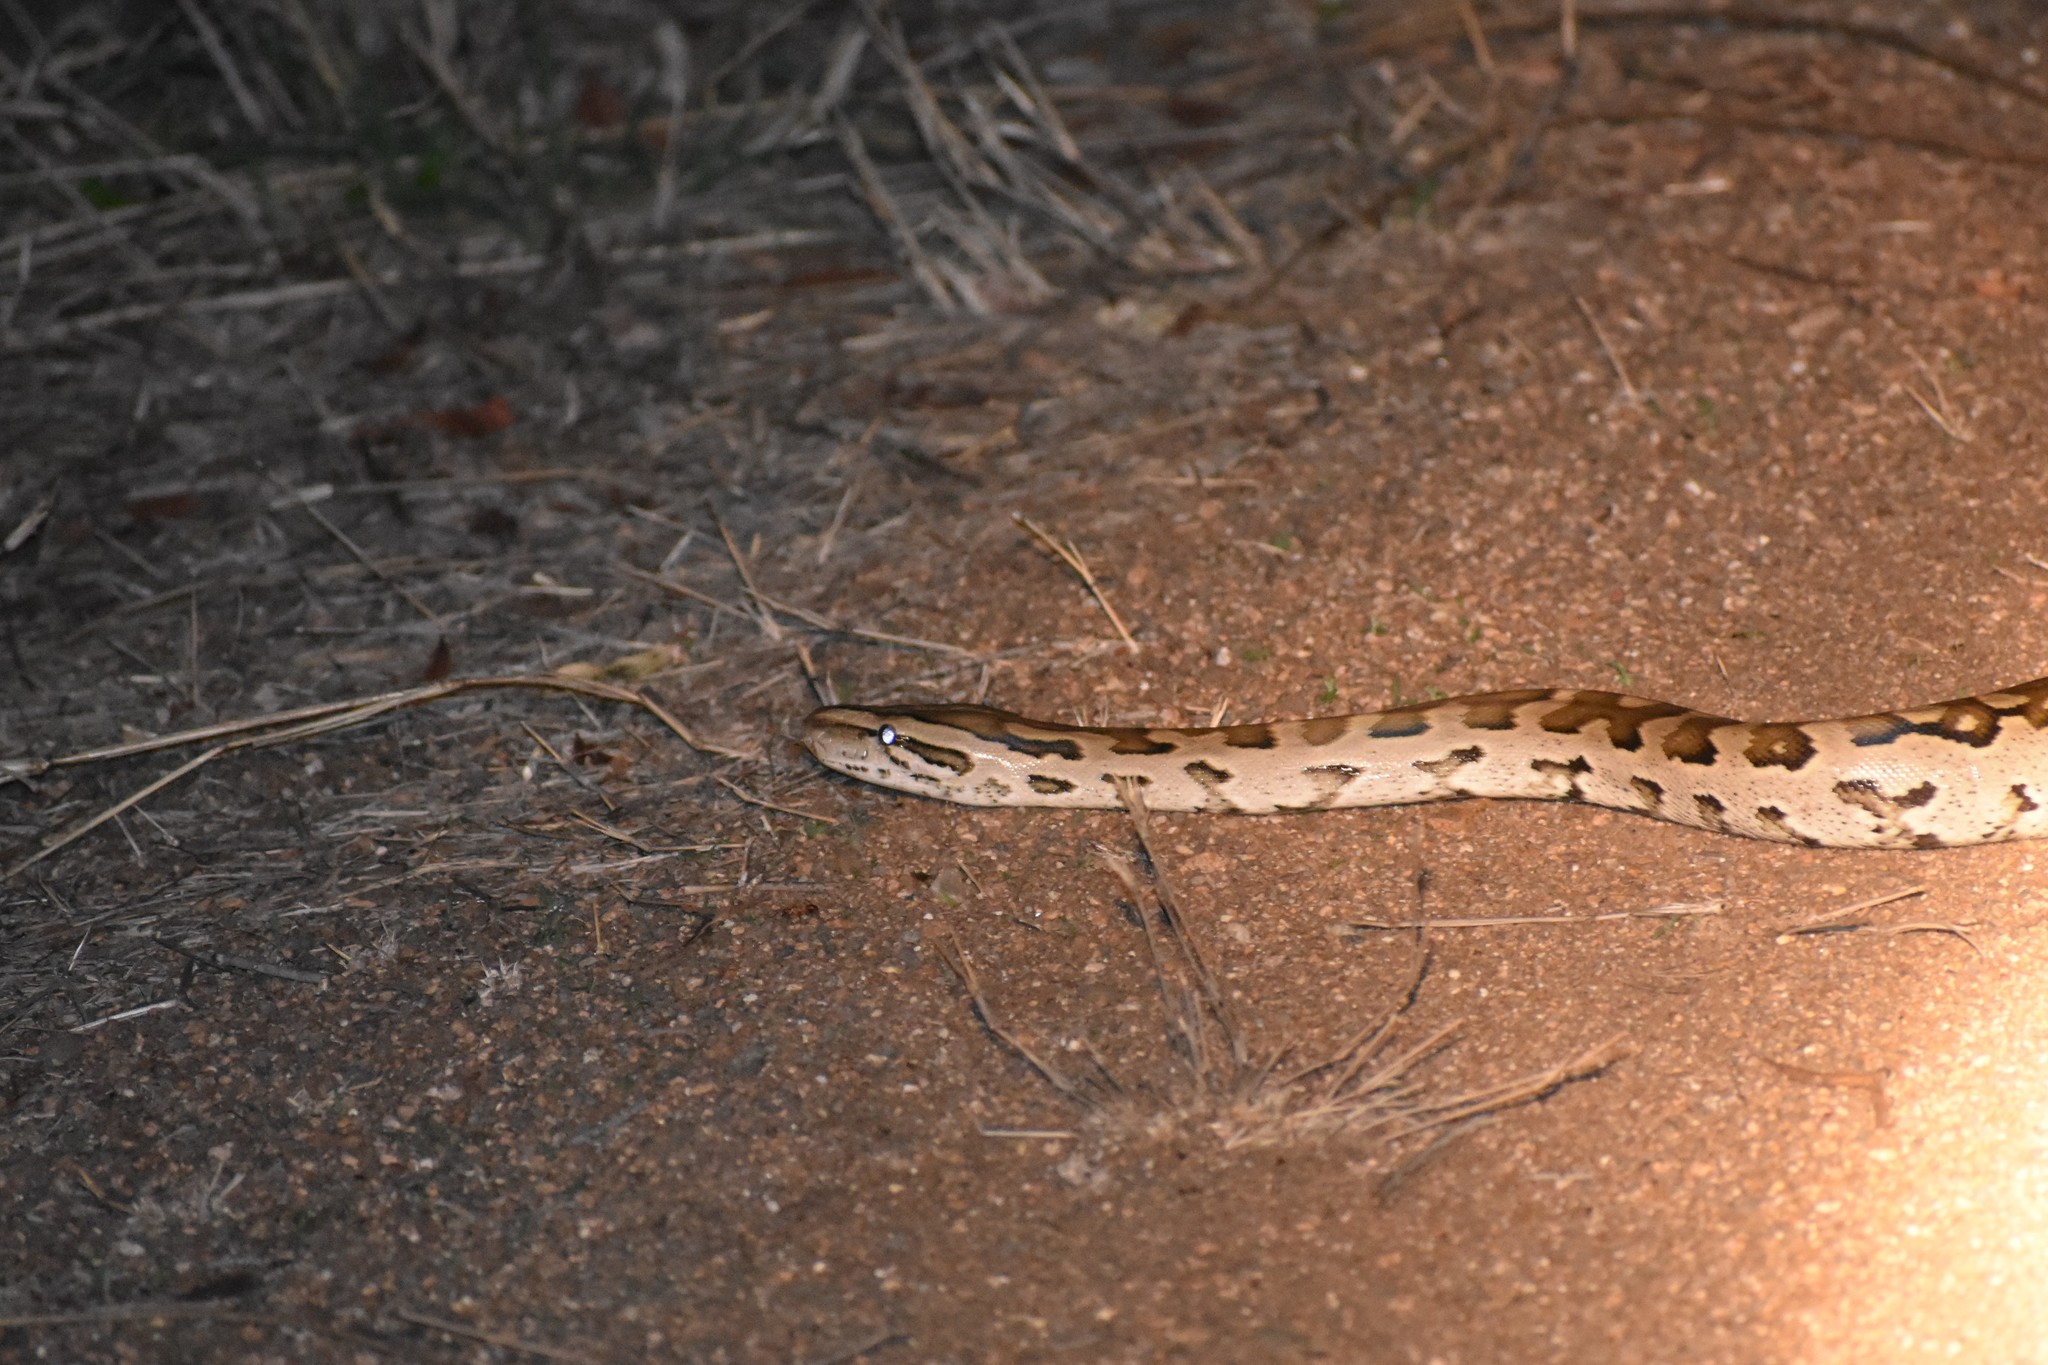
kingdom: Animalia
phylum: Chordata
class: Squamata
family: Pythonidae
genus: Python
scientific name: Python natalensis
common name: Southern african rock python
